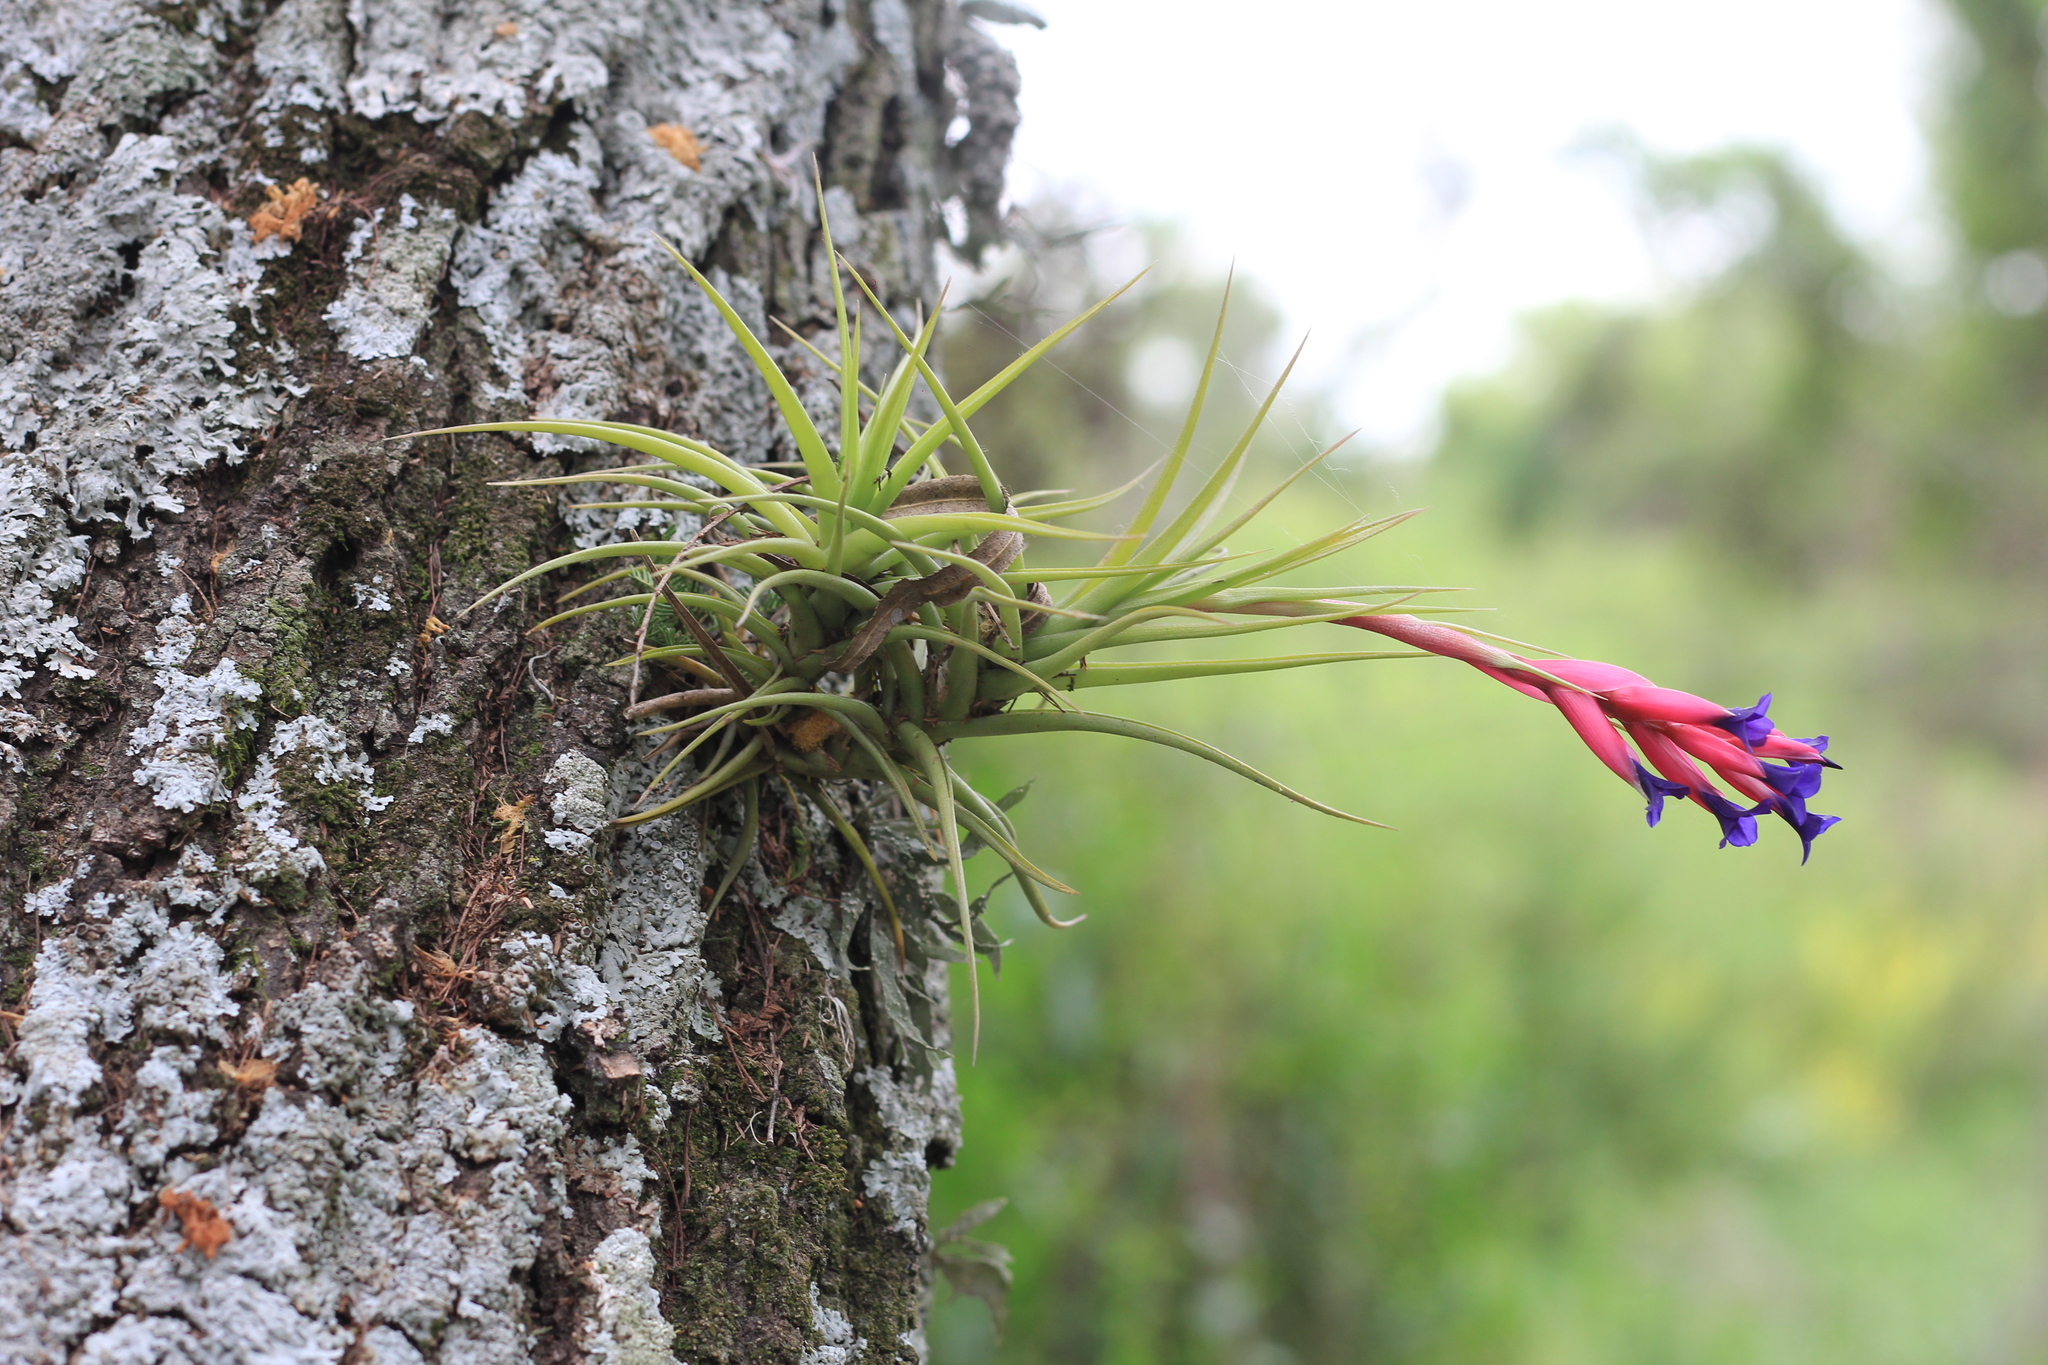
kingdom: Plantae
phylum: Tracheophyta
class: Liliopsida
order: Poales
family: Bromeliaceae
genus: Tillandsia
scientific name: Tillandsia aeranthos
